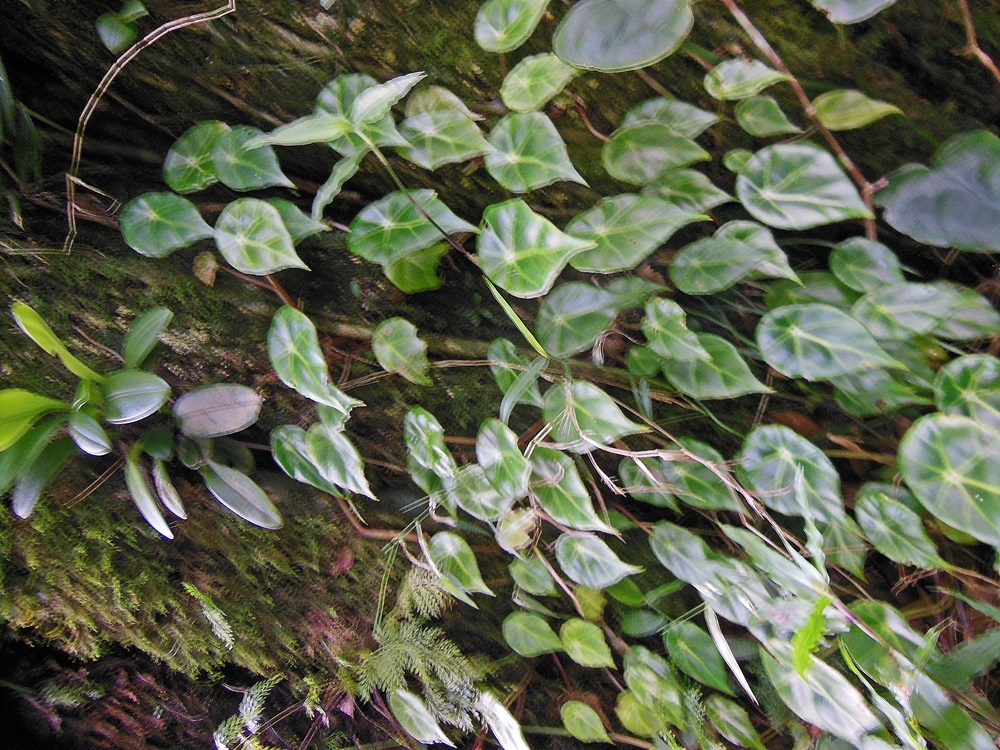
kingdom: Plantae
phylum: Tracheophyta
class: Magnoliopsida
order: Cucurbitales
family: Begoniaceae
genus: Begonia
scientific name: Begonia calderonii
